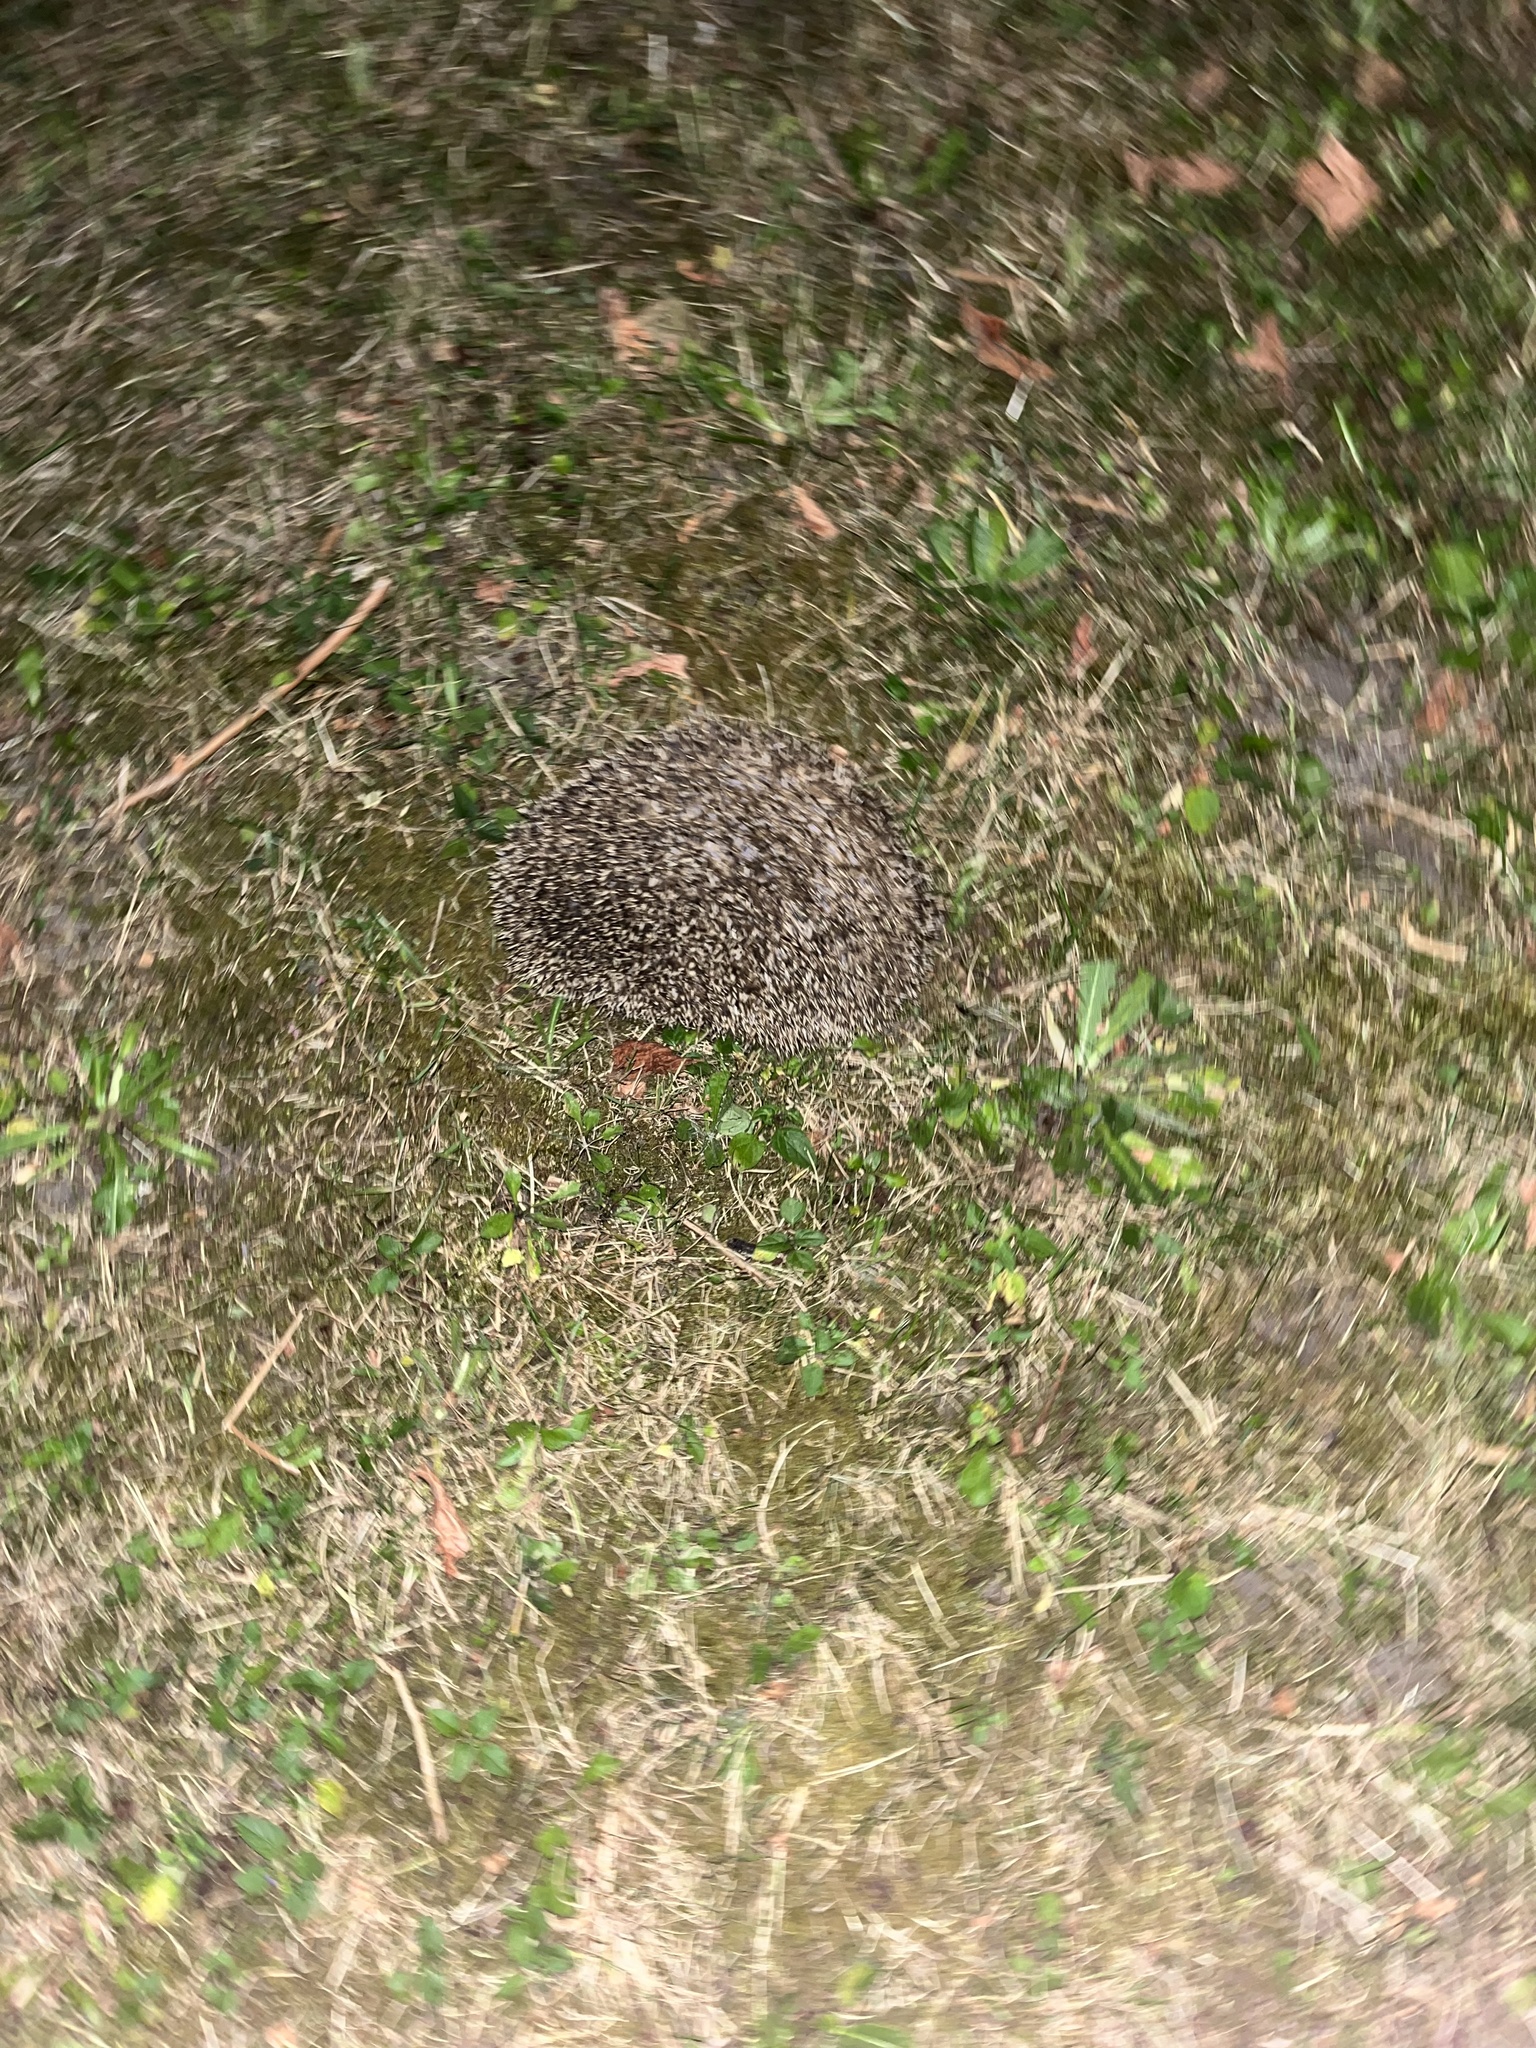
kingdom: Animalia
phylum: Chordata
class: Mammalia
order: Erinaceomorpha
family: Erinaceidae
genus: Erinaceus
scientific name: Erinaceus europaeus
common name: West european hedgehog
